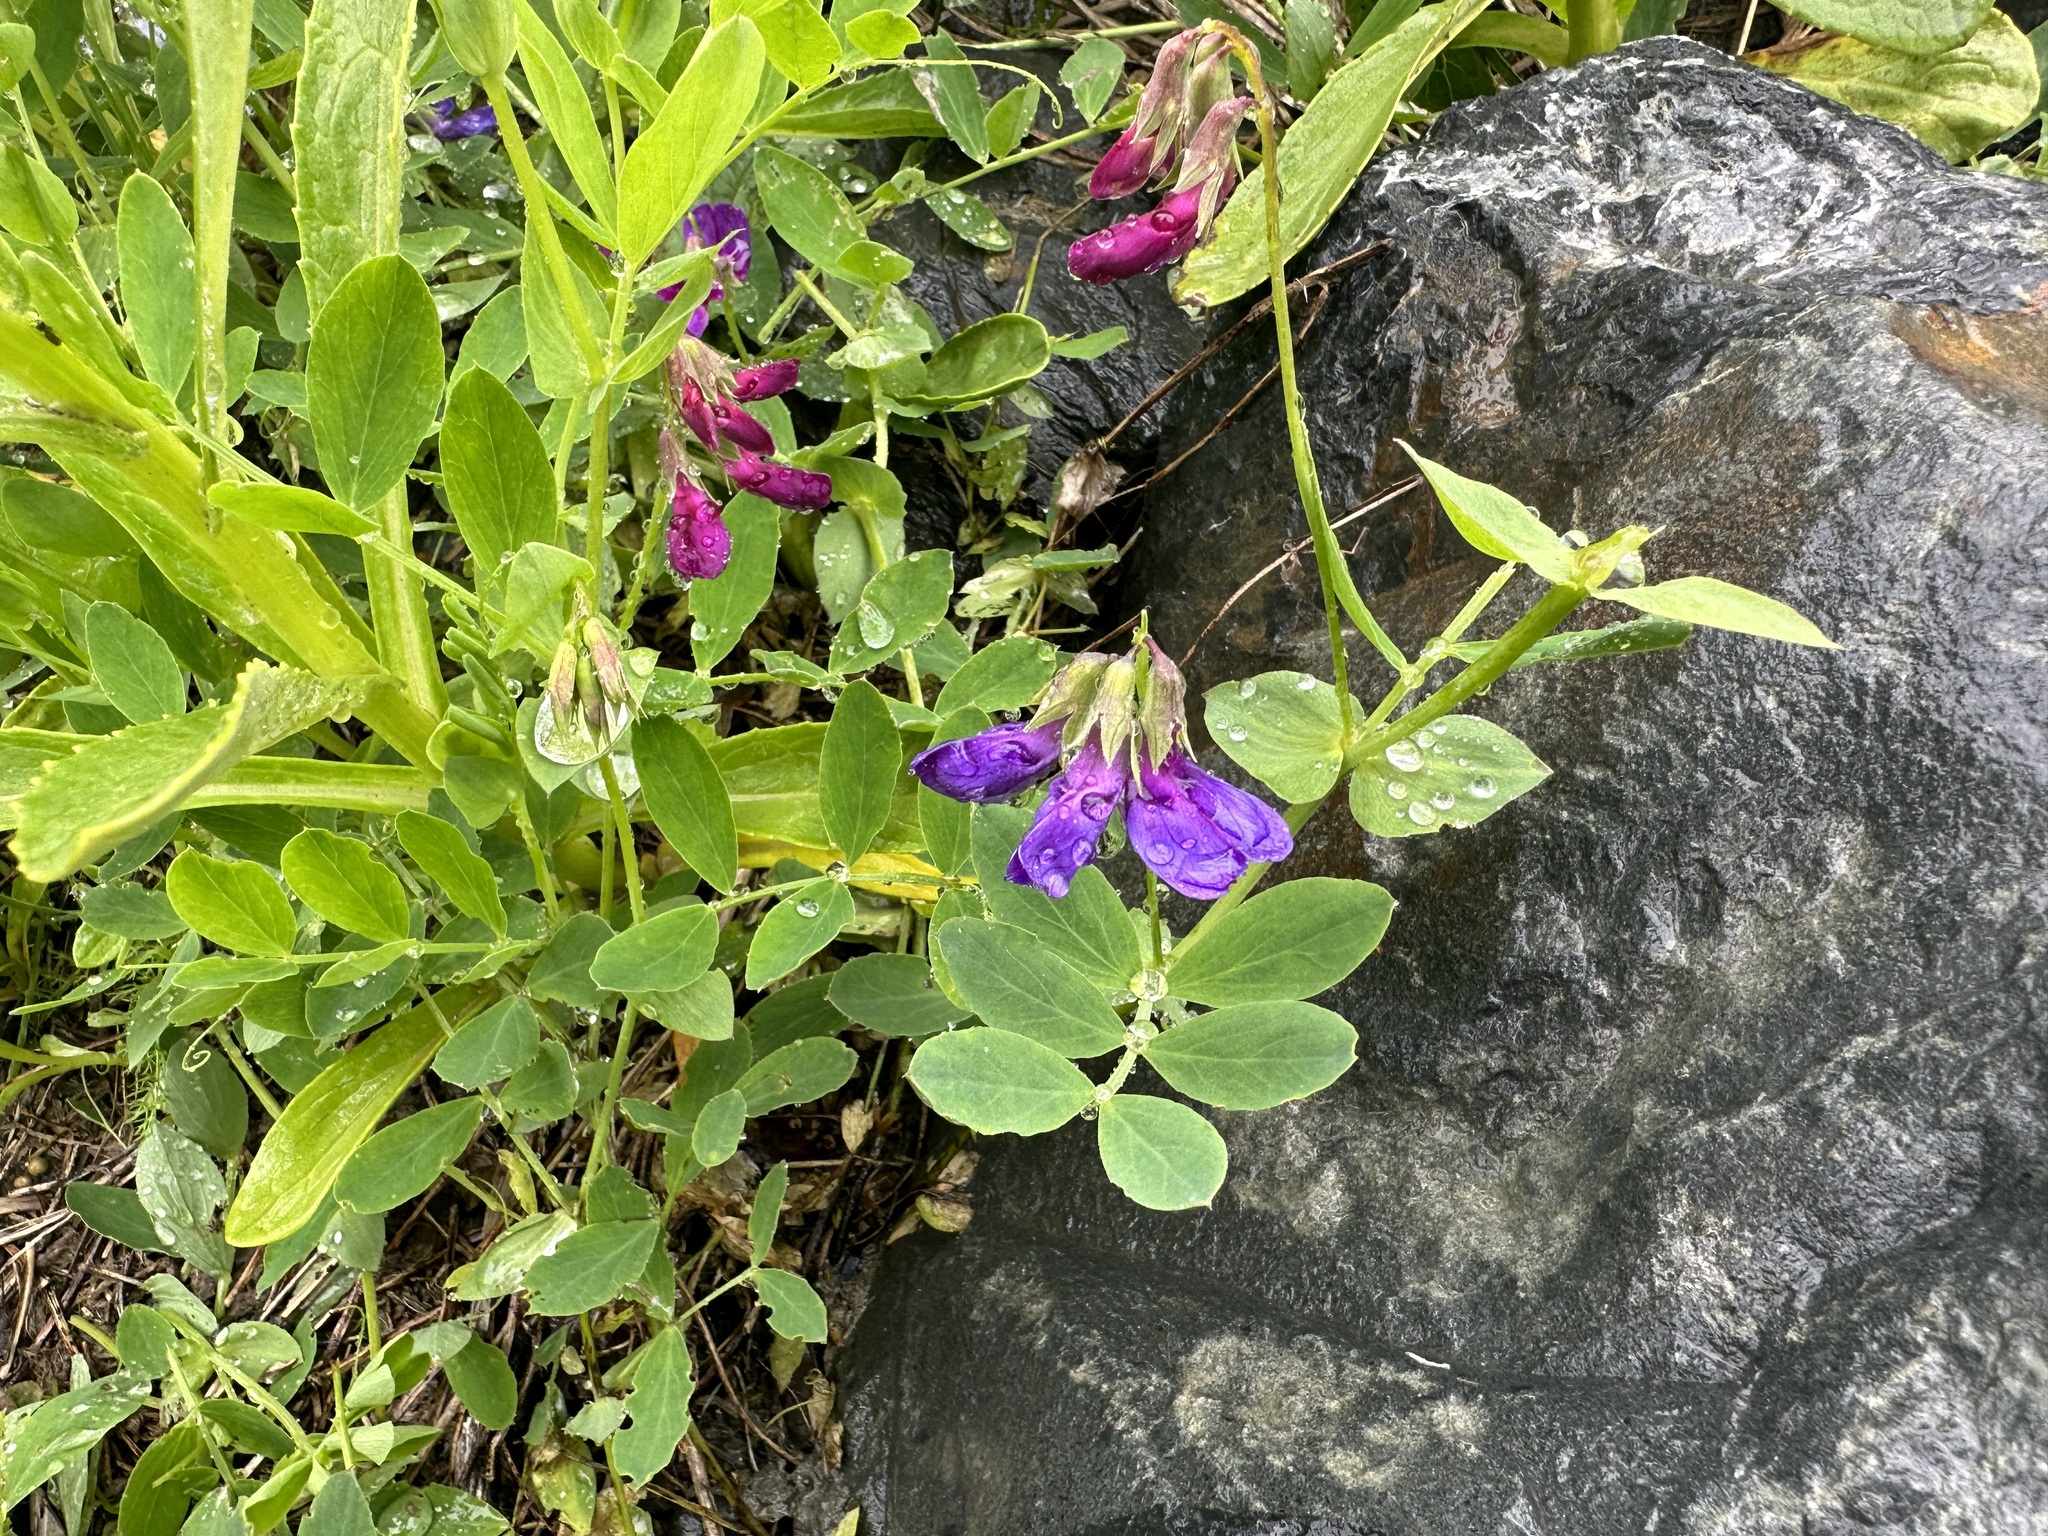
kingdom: Plantae
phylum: Tracheophyta
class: Magnoliopsida
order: Fabales
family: Fabaceae
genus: Lathyrus
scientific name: Lathyrus japonicus
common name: Sea pea
